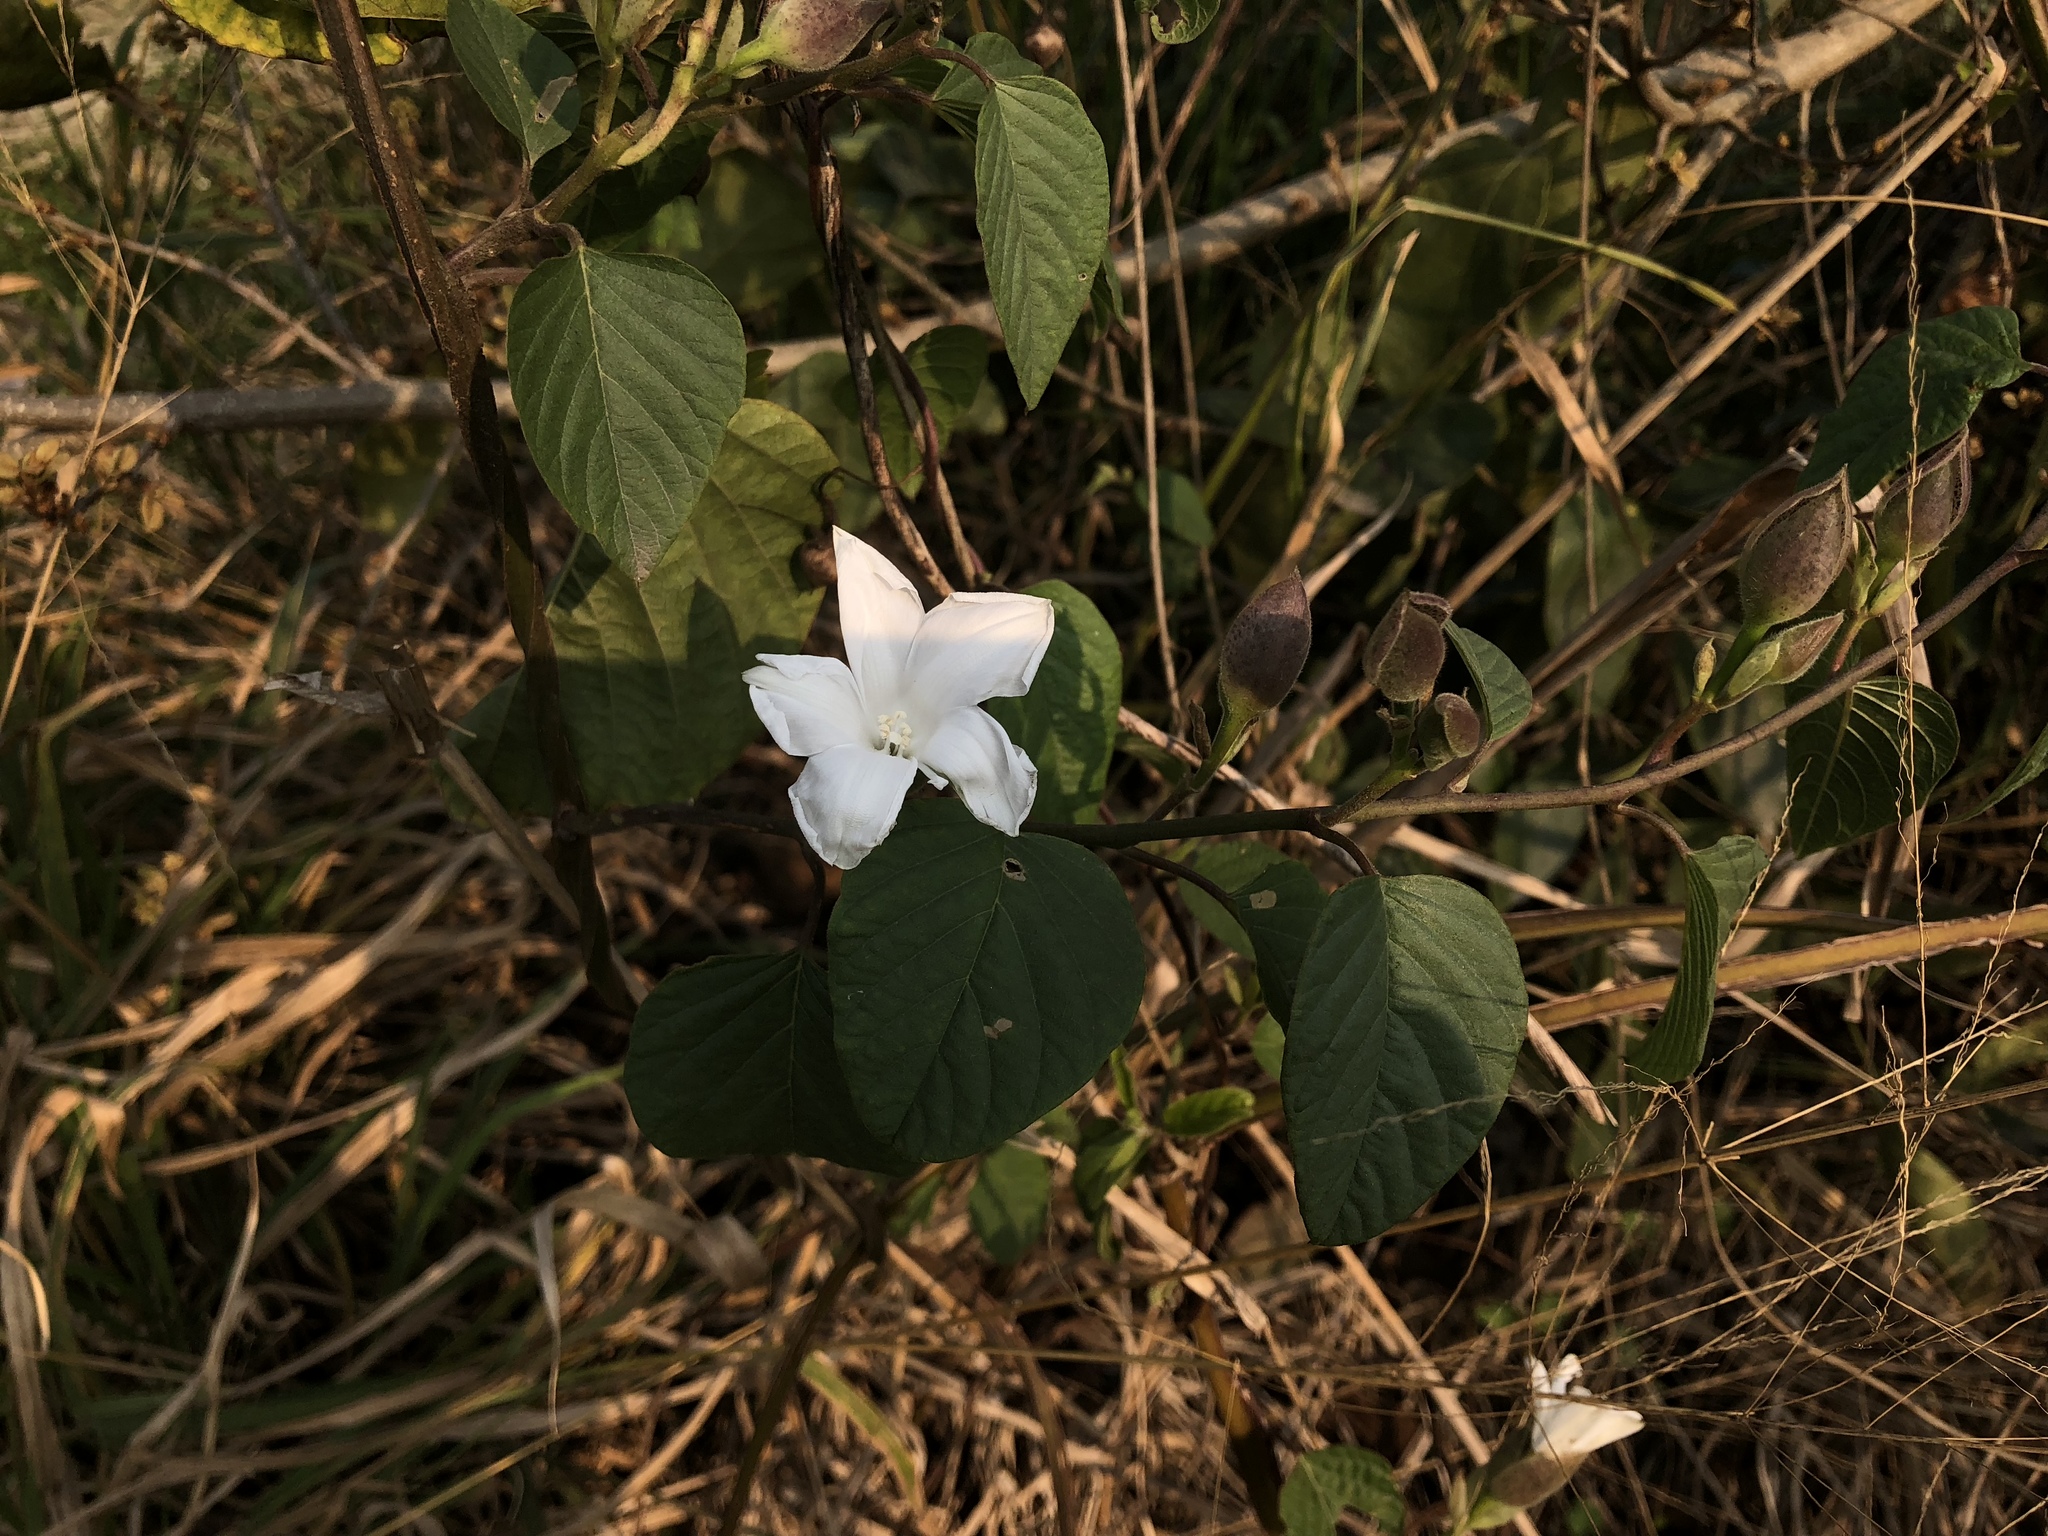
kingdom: Plantae
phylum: Tracheophyta
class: Magnoliopsida
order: Solanales
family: Convolvulaceae
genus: Operculina
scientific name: Operculina turpethum
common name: Transparent wood-rose
